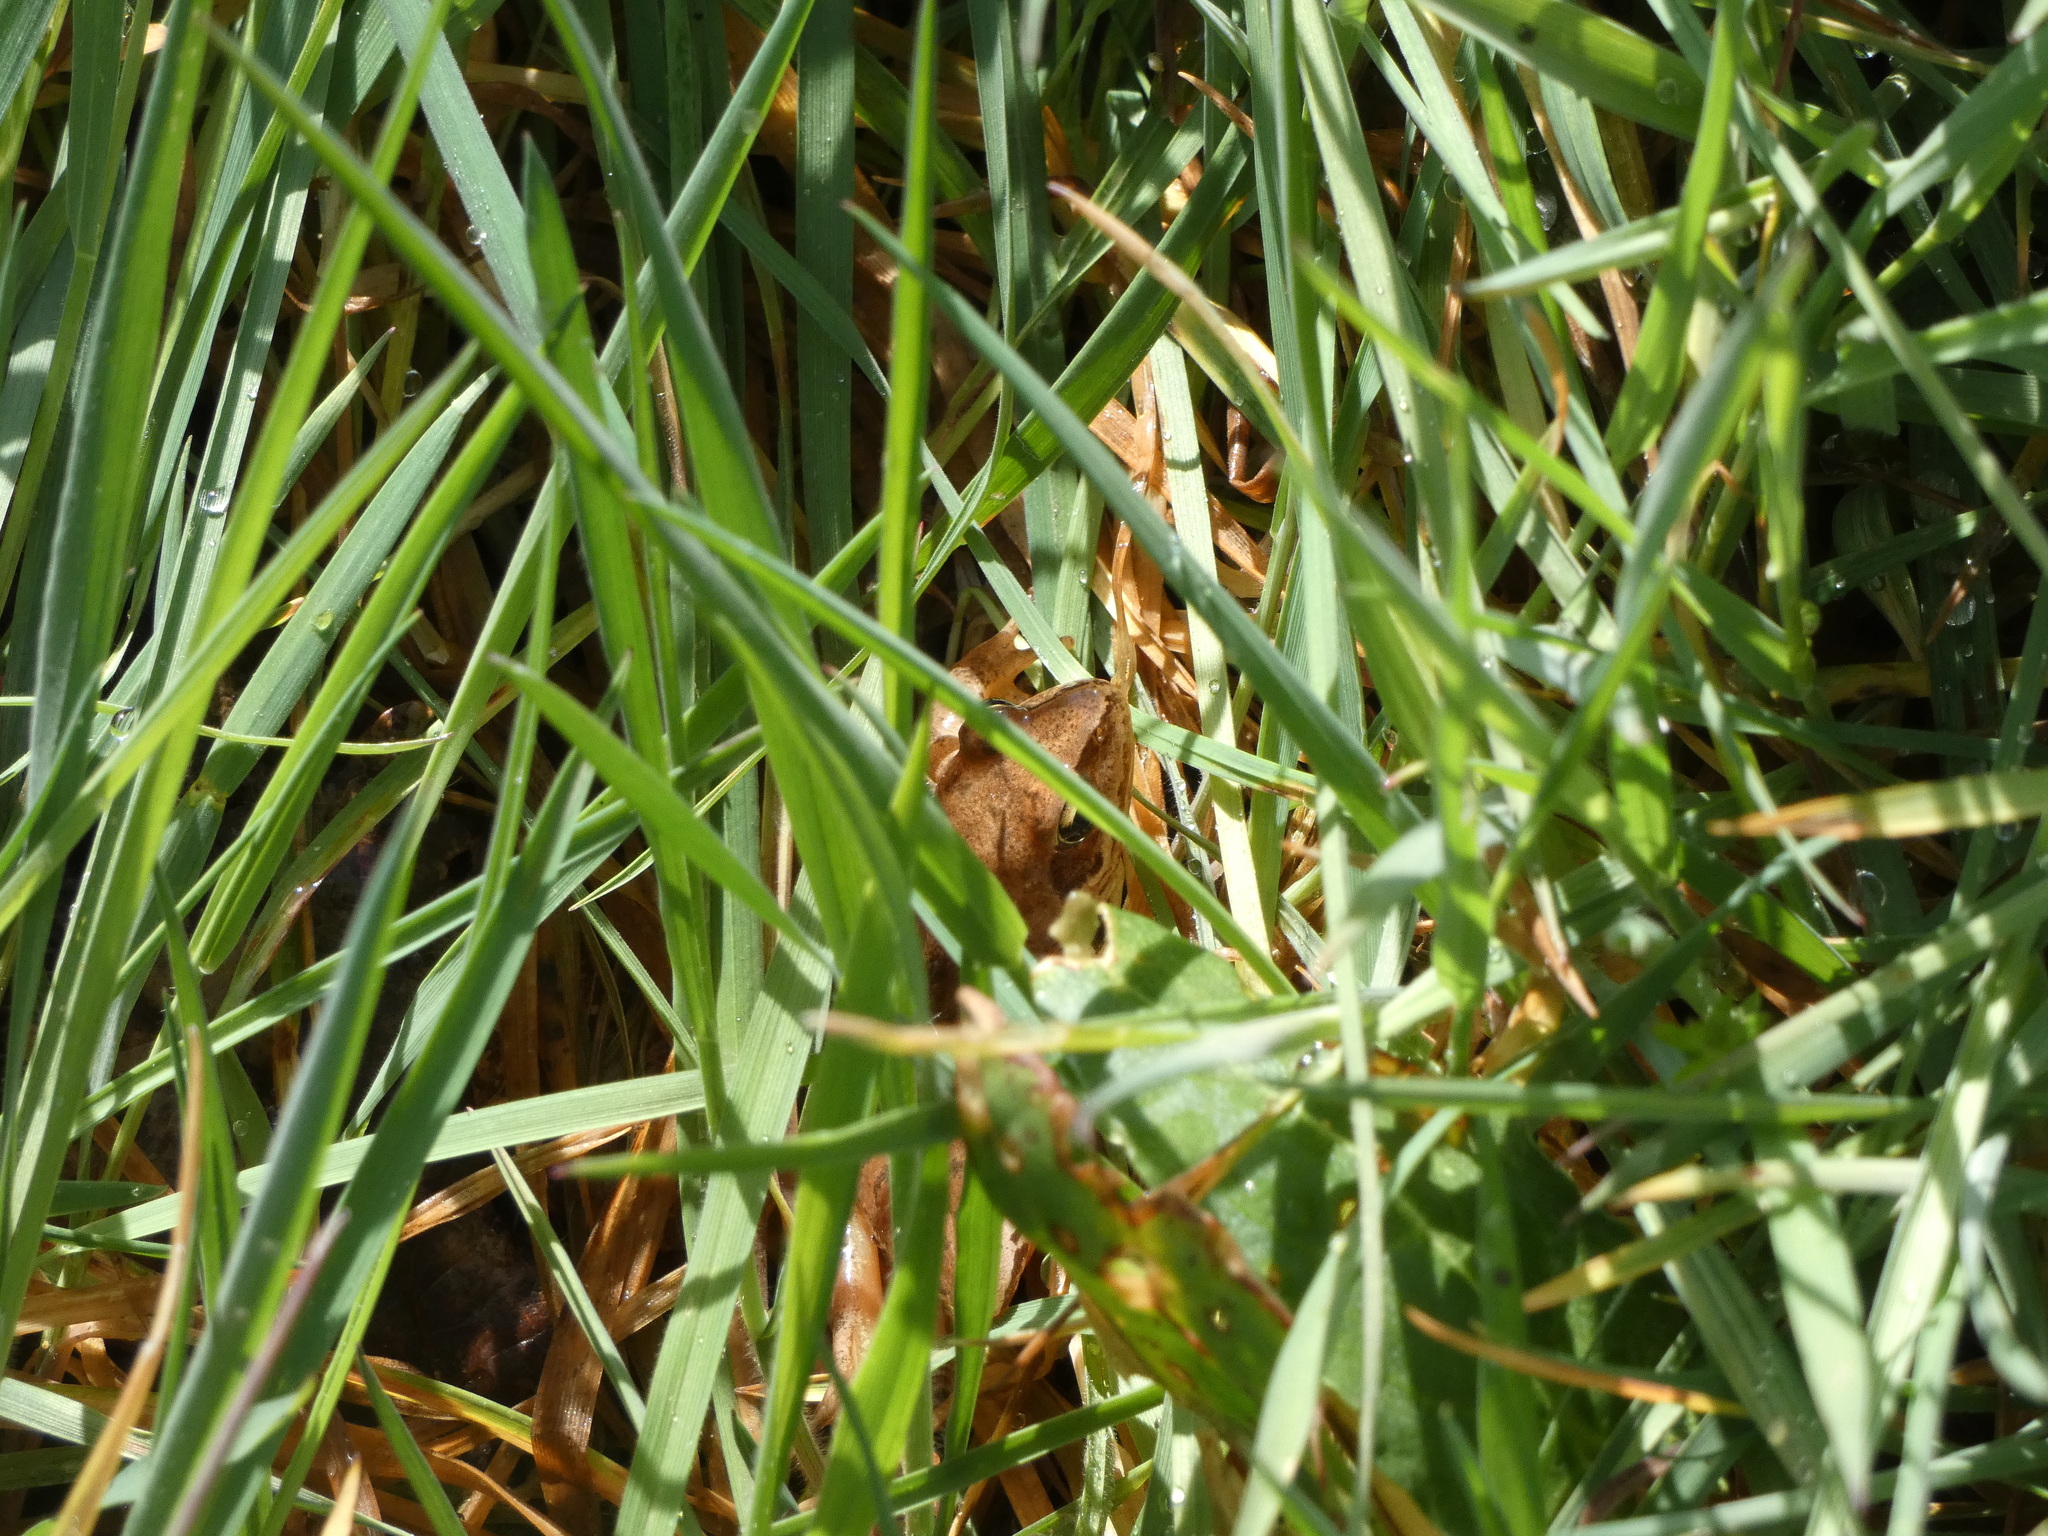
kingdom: Animalia
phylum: Chordata
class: Amphibia
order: Anura
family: Ranidae
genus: Rana
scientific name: Rana dalmatina
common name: Agile frog
